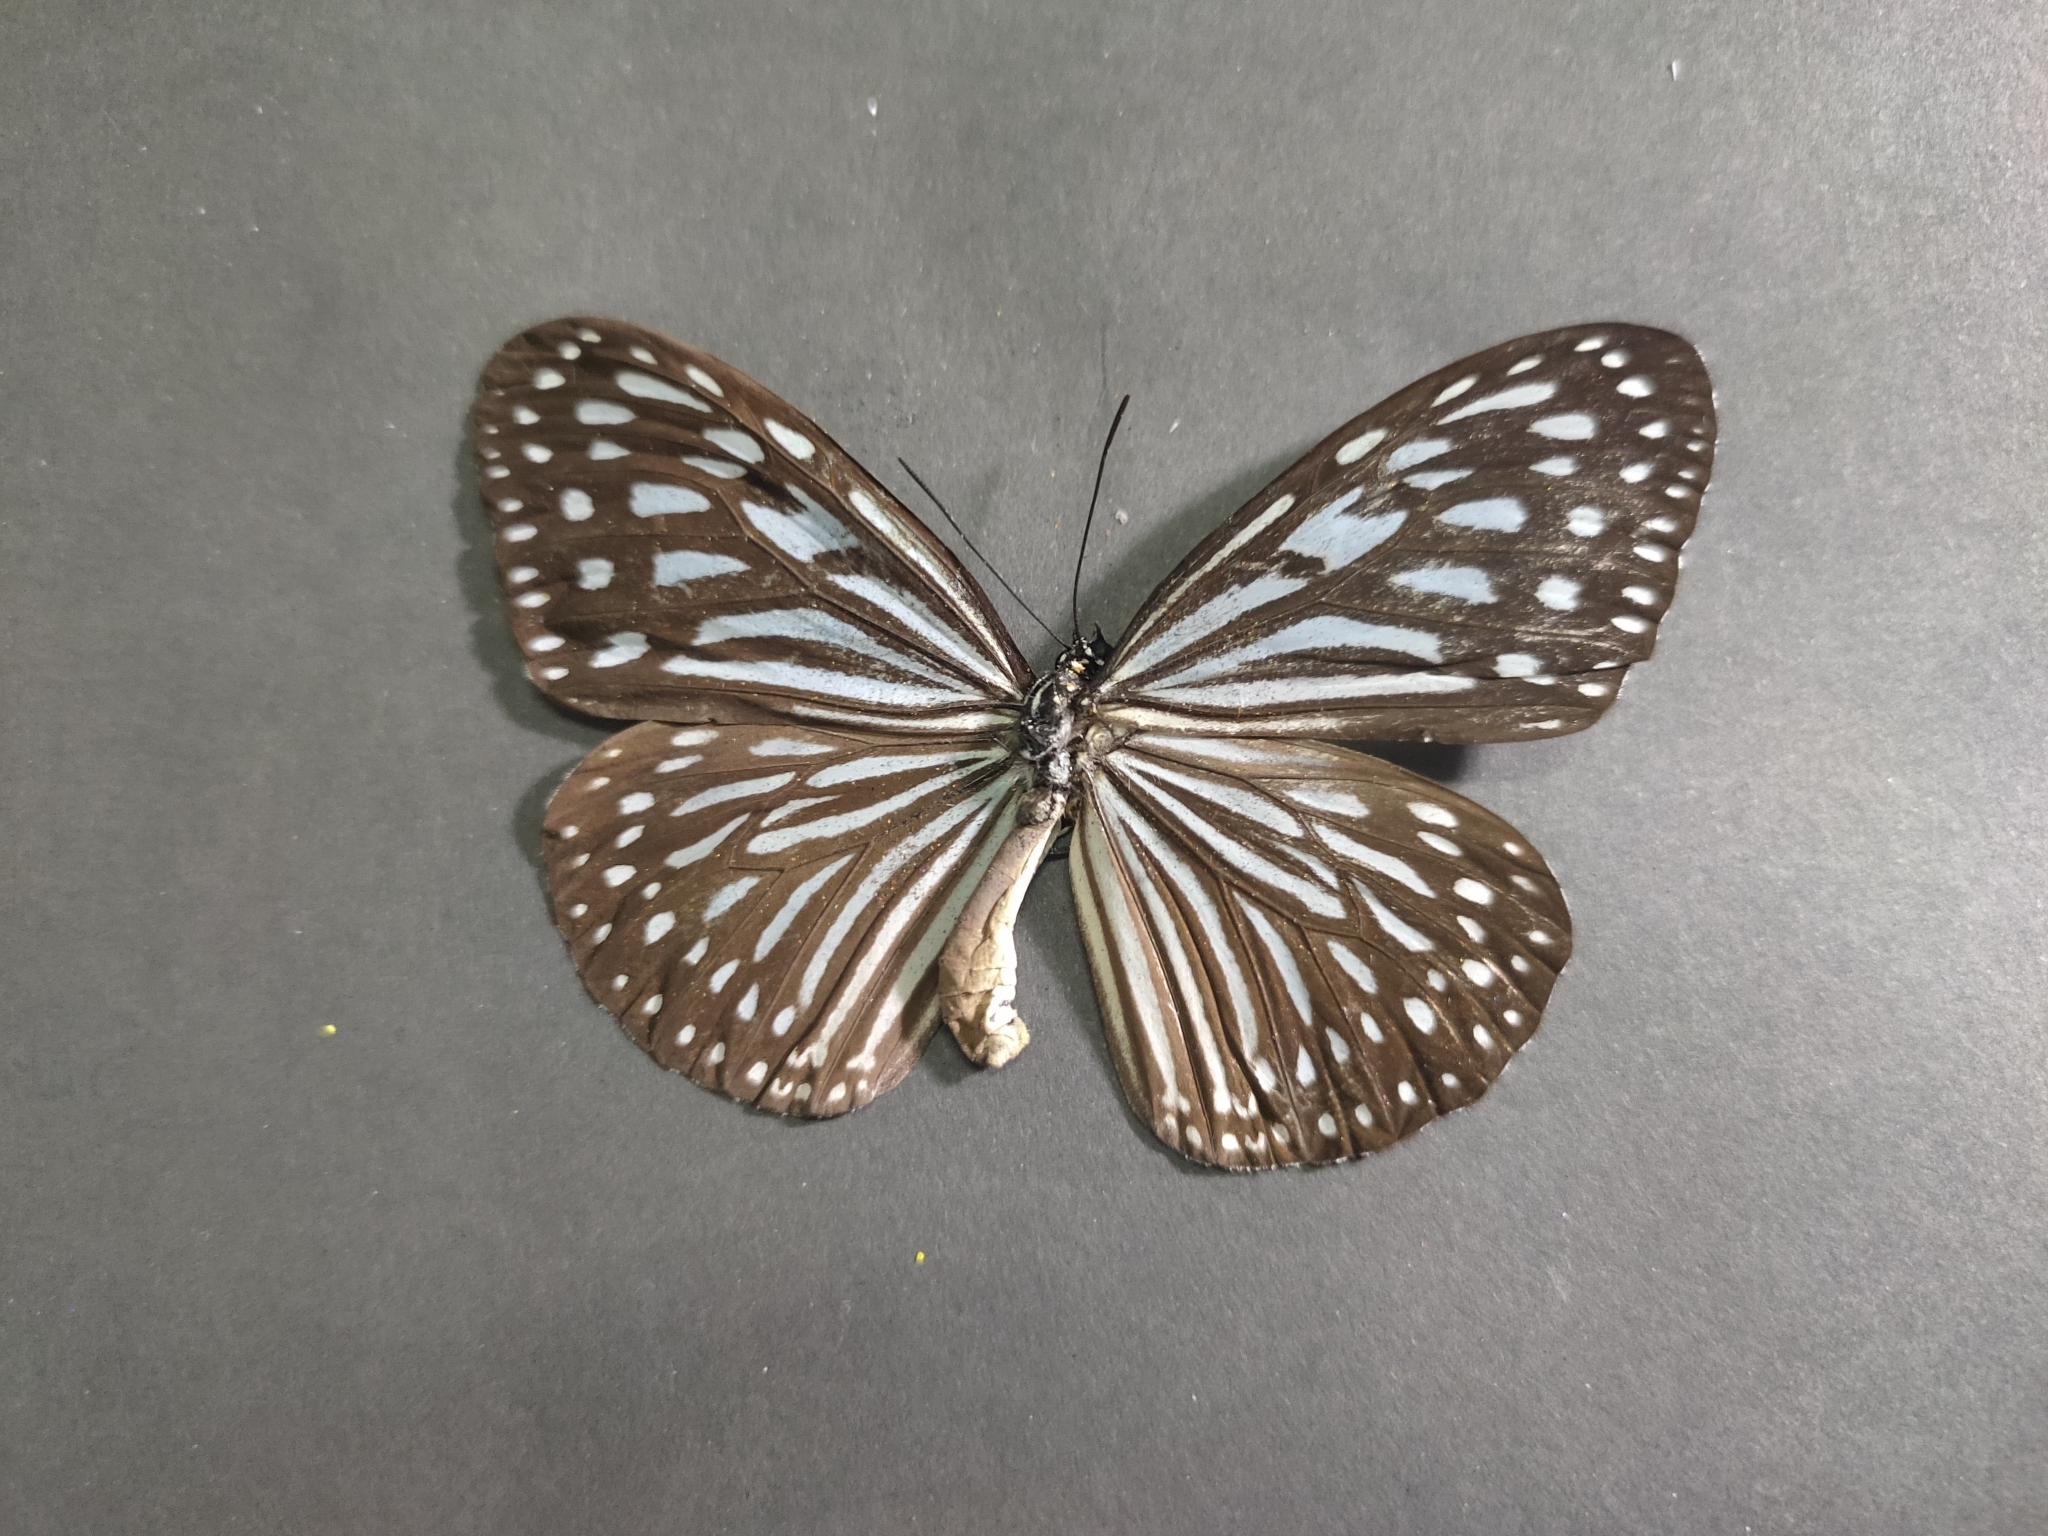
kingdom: Animalia
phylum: Arthropoda
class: Insecta
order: Lepidoptera
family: Nymphalidae
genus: Ideopsis
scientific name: Ideopsis vulgaris
